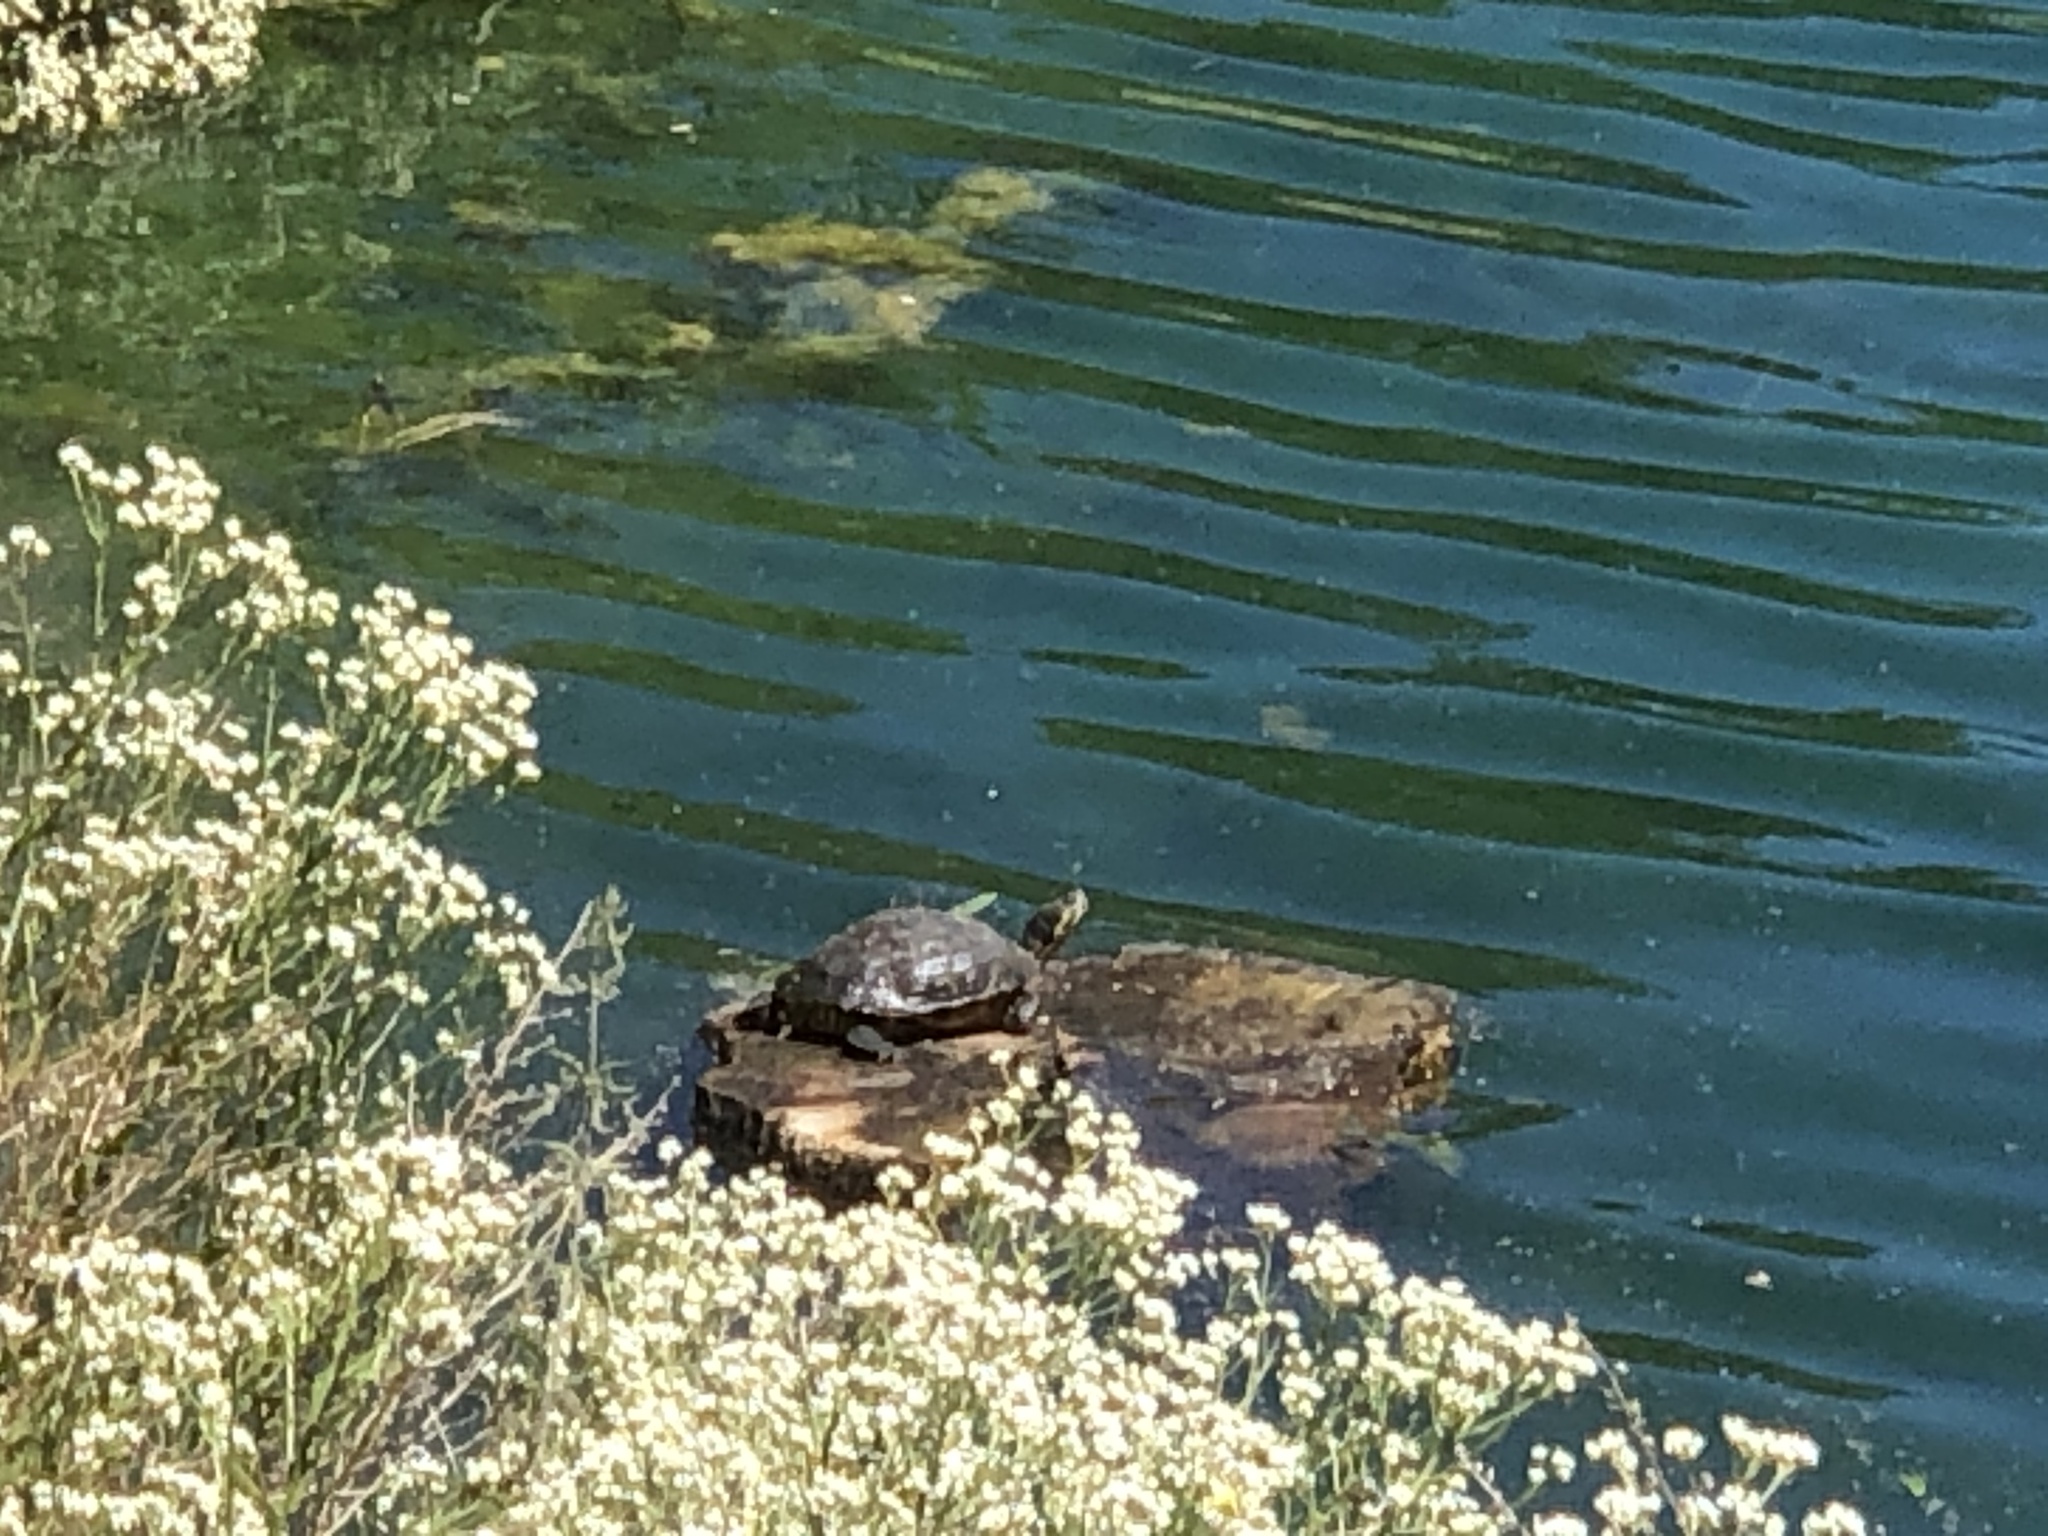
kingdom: Animalia
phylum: Chordata
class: Testudines
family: Emydidae
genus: Trachemys
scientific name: Trachemys scripta
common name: Slider
